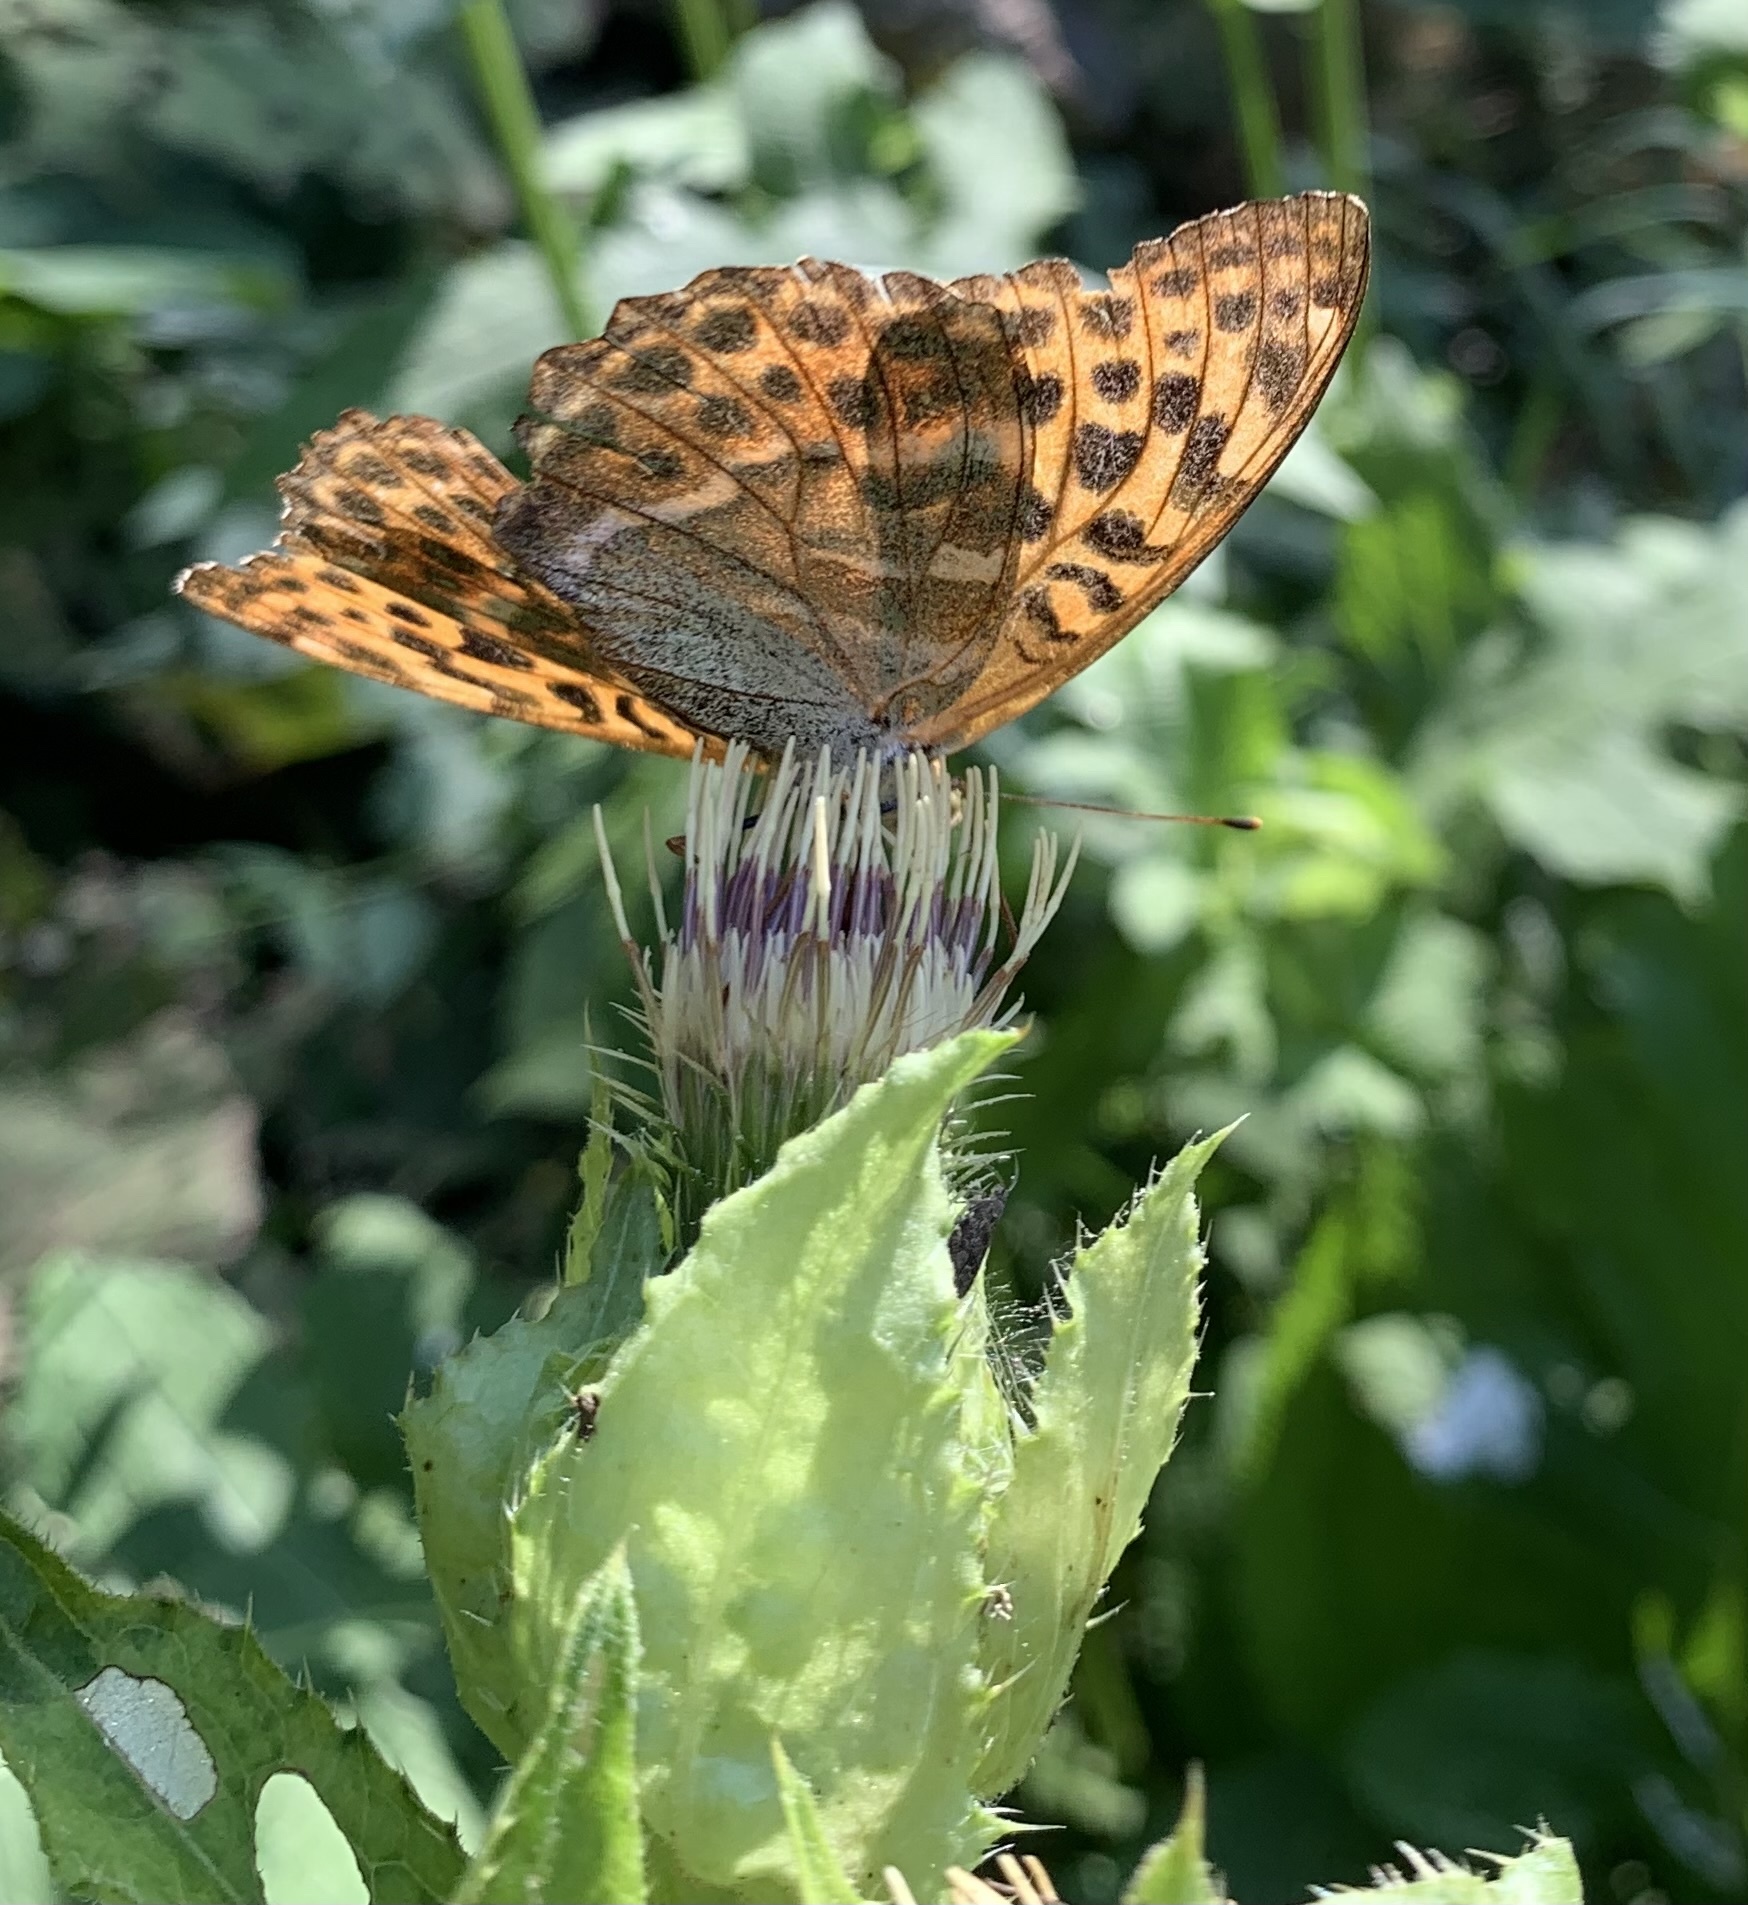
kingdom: Animalia
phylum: Arthropoda
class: Insecta
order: Lepidoptera
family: Nymphalidae
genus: Argynnis
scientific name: Argynnis paphia
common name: Silver-washed fritillary
